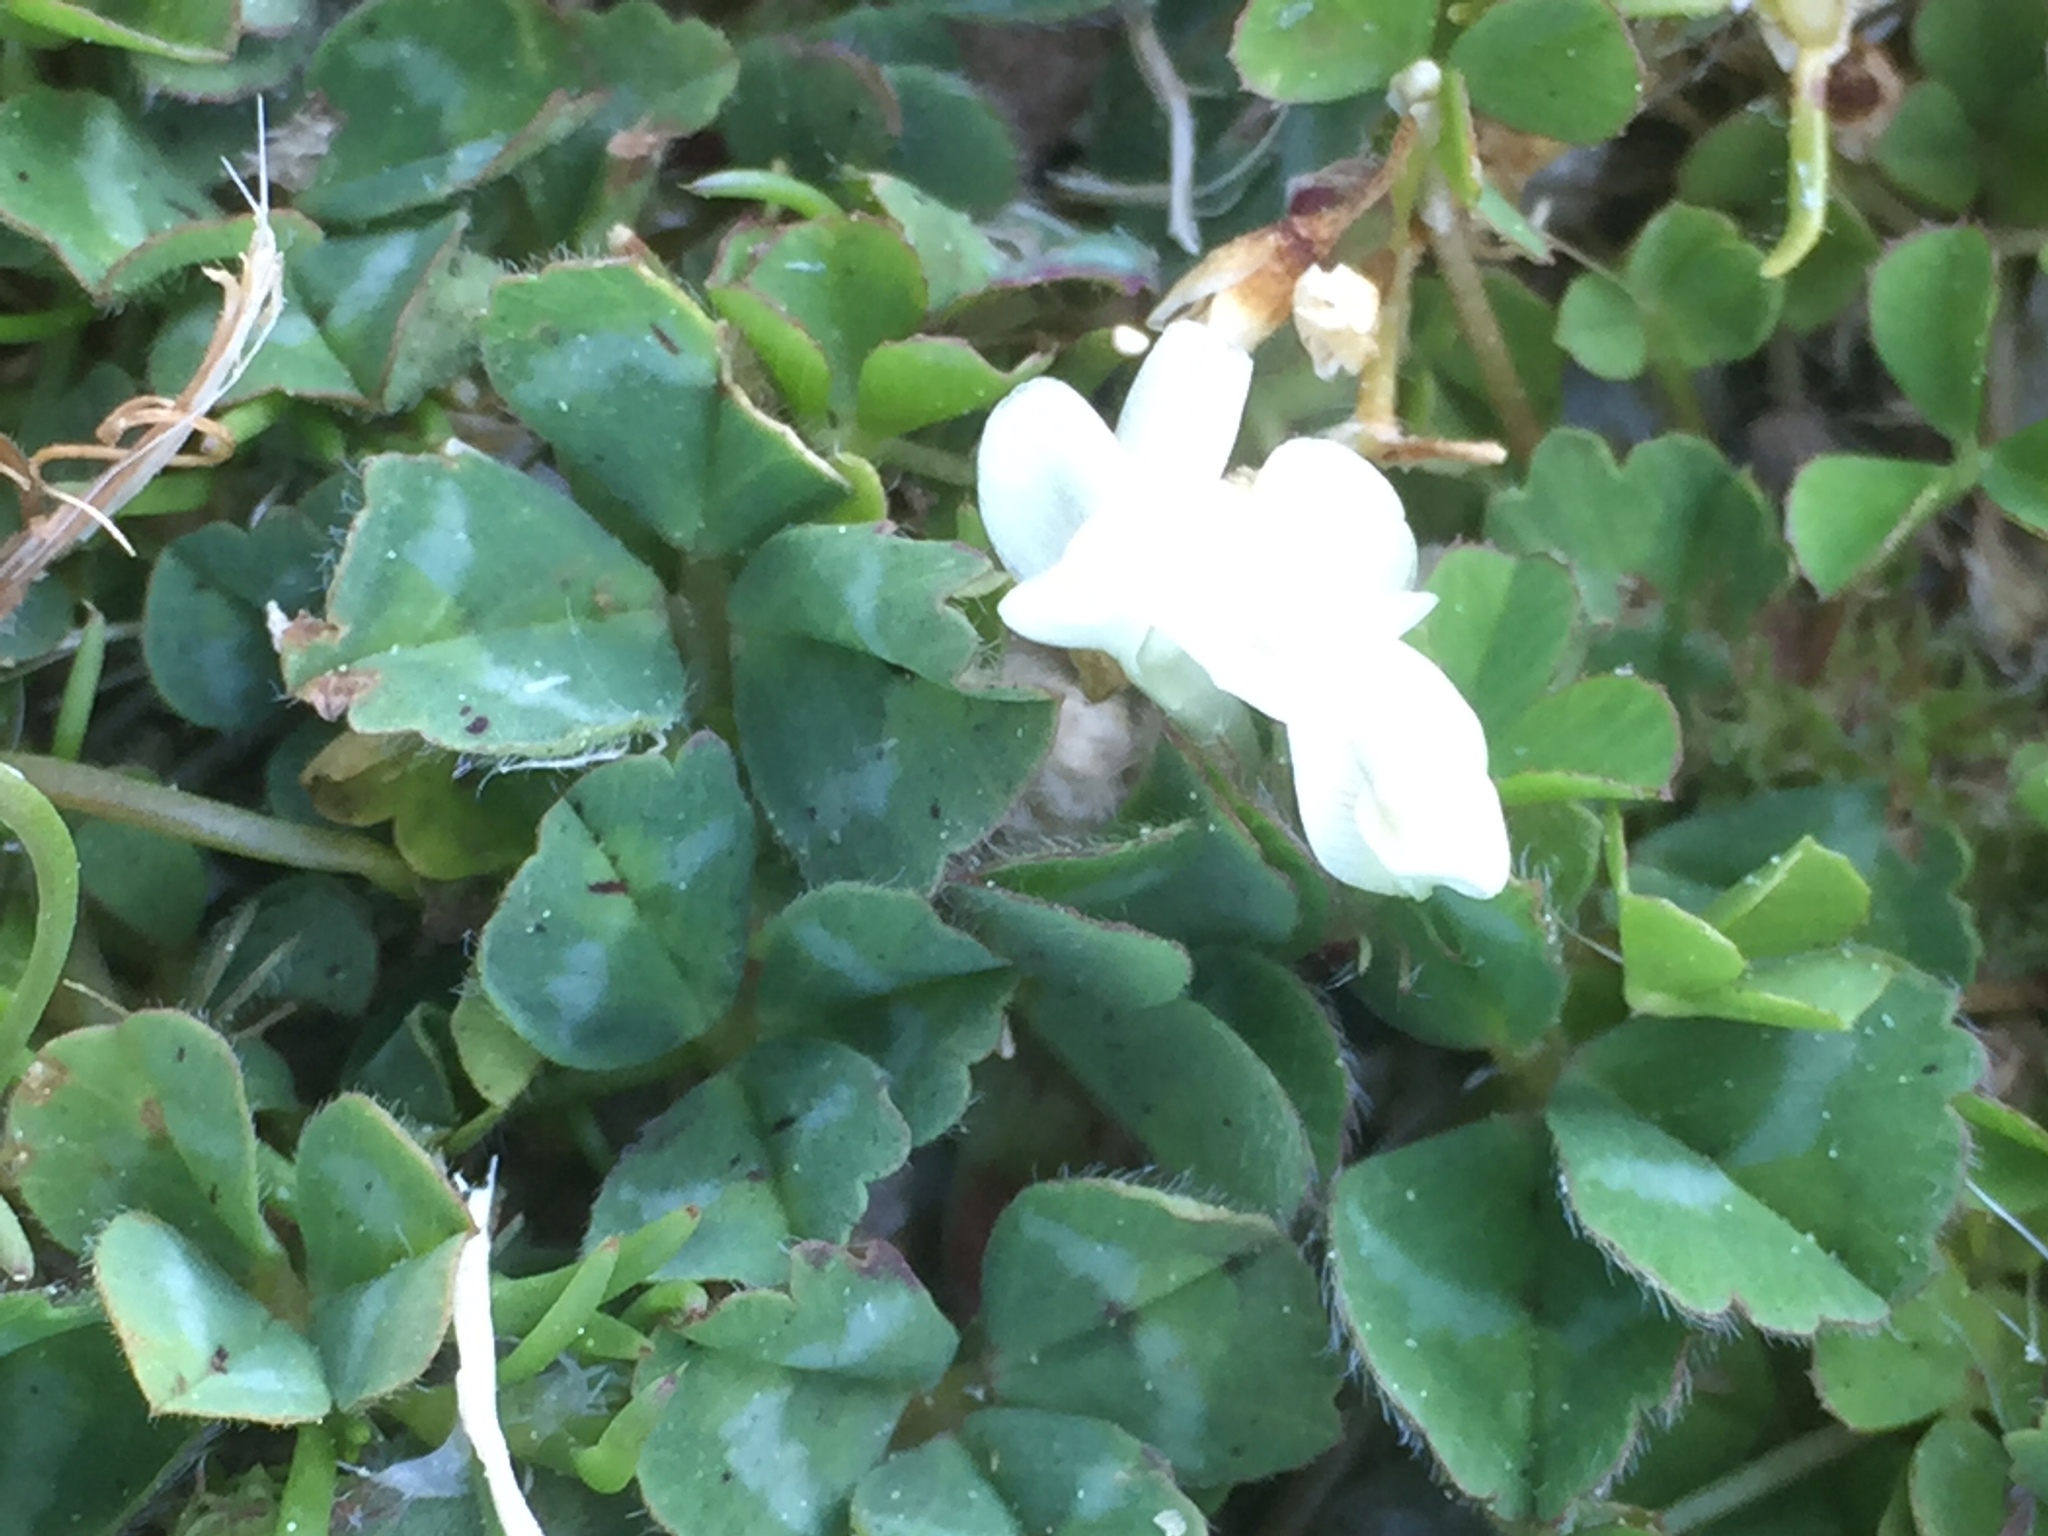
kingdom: Plantae
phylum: Tracheophyta
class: Magnoliopsida
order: Fabales
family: Fabaceae
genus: Trifolium
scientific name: Trifolium subterraneum
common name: Subterranean clover
